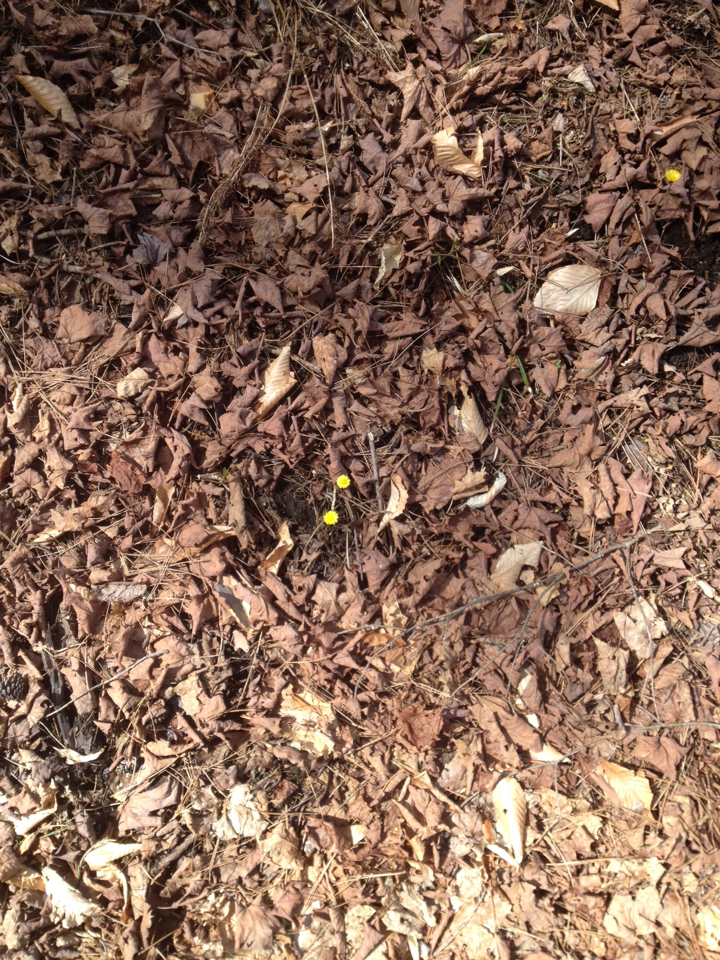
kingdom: Plantae
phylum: Tracheophyta
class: Magnoliopsida
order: Asterales
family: Asteraceae
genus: Tussilago
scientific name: Tussilago farfara
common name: Coltsfoot
